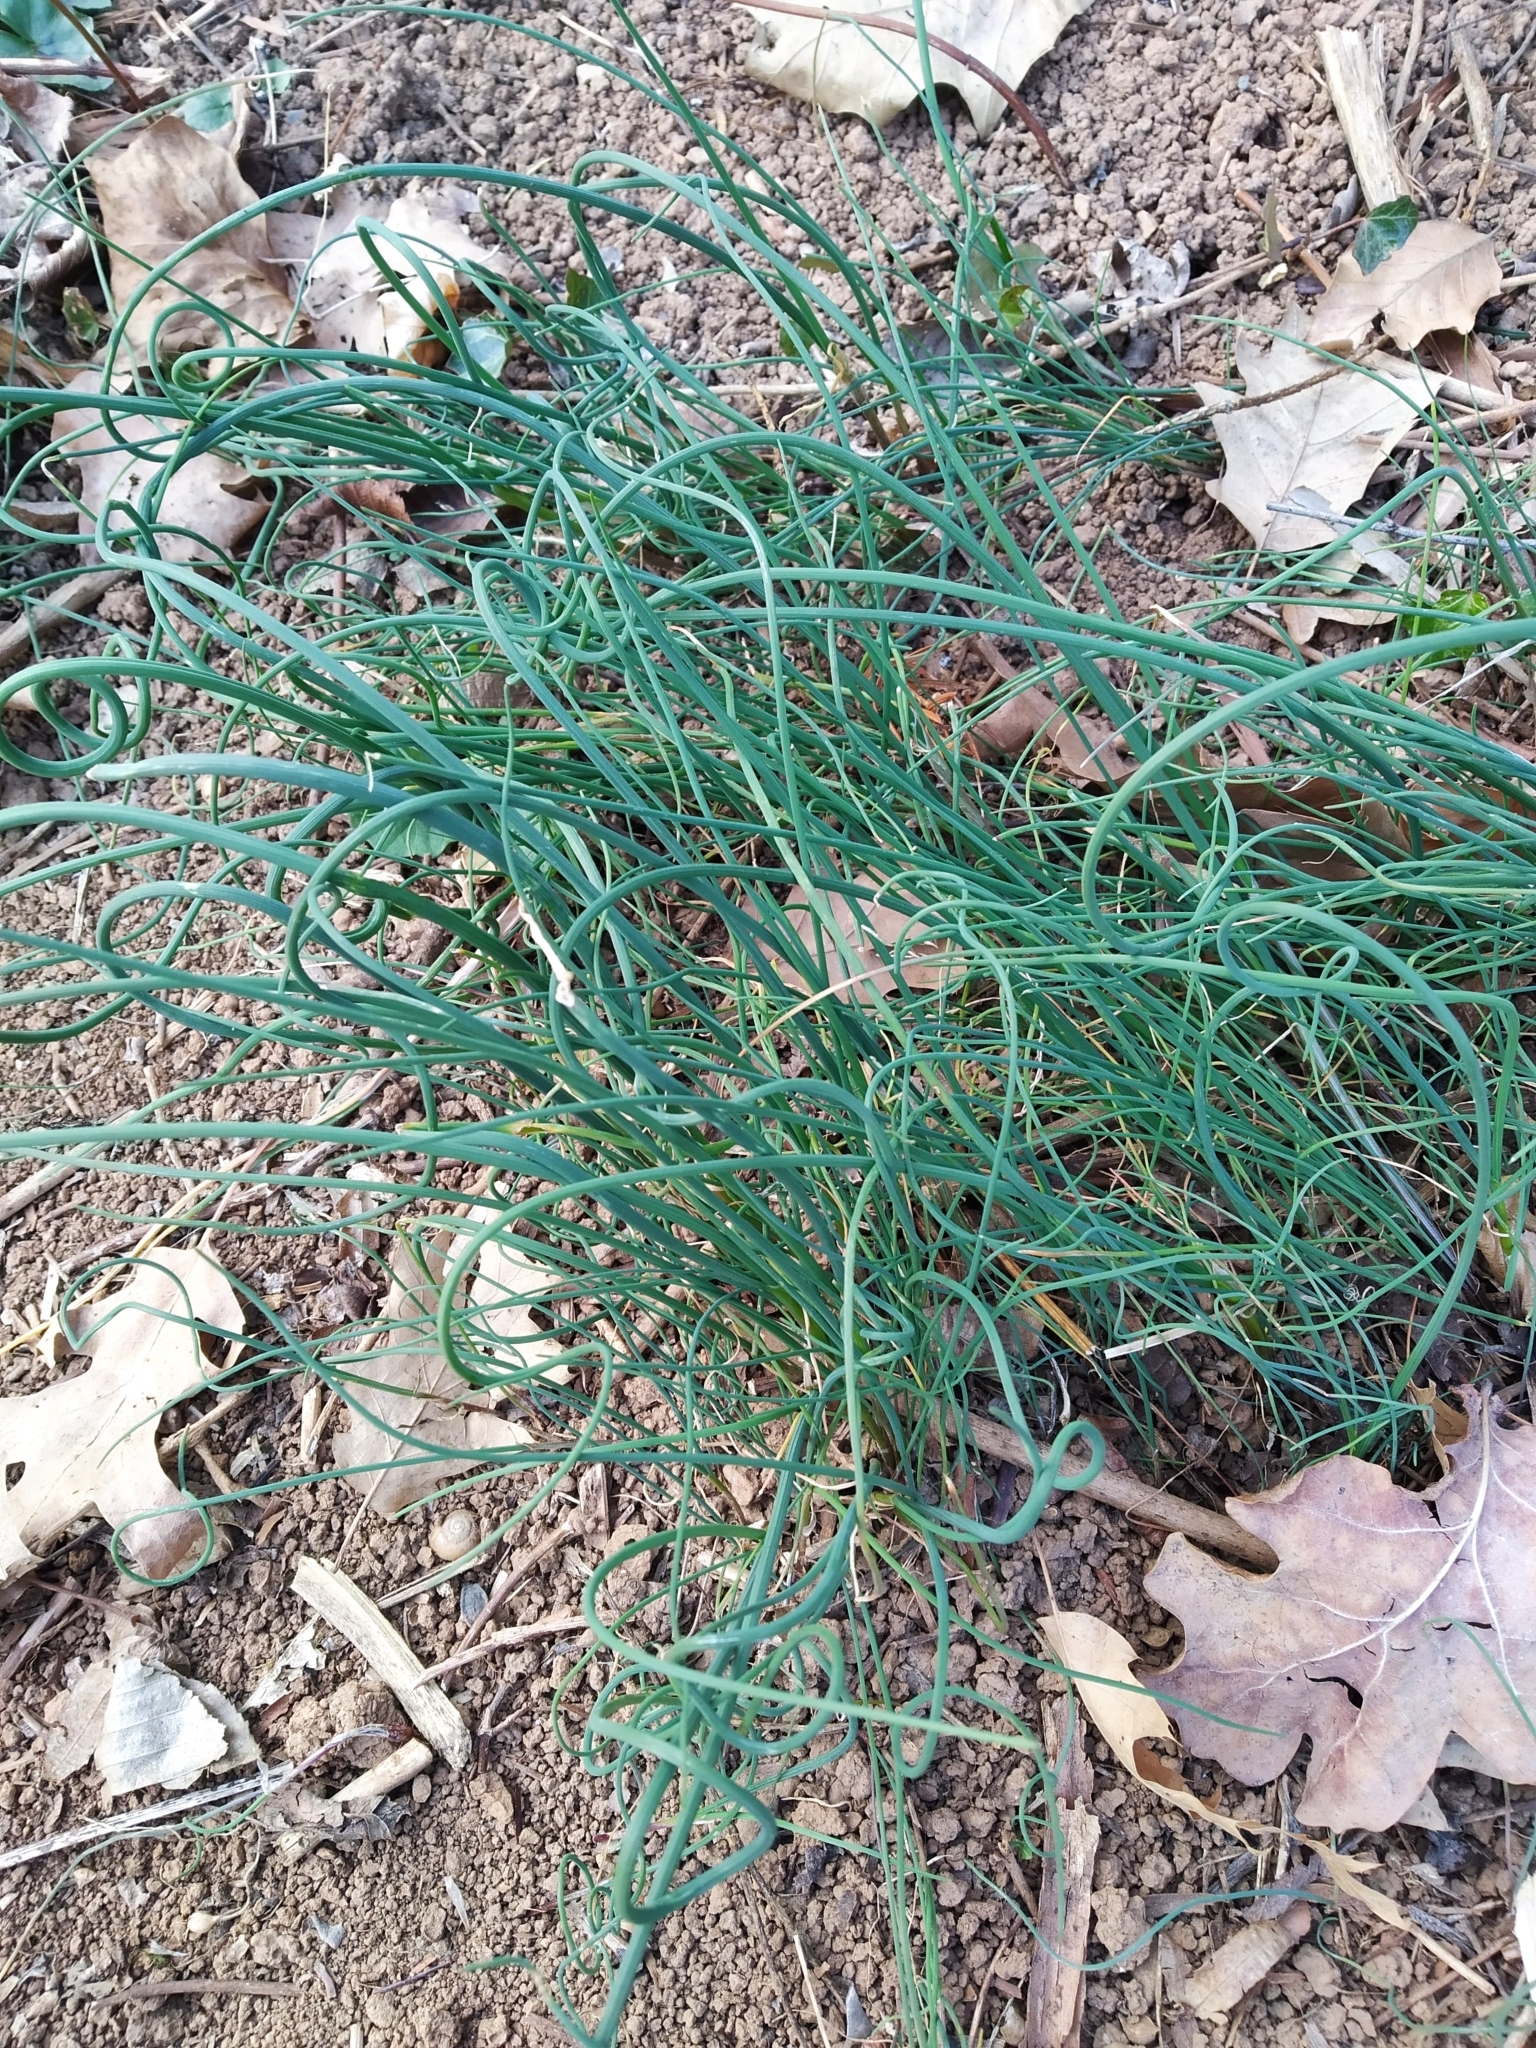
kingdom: Plantae
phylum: Tracheophyta
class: Liliopsida
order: Asparagales
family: Amaryllidaceae
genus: Allium
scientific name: Allium vineale
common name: Crow garlic
